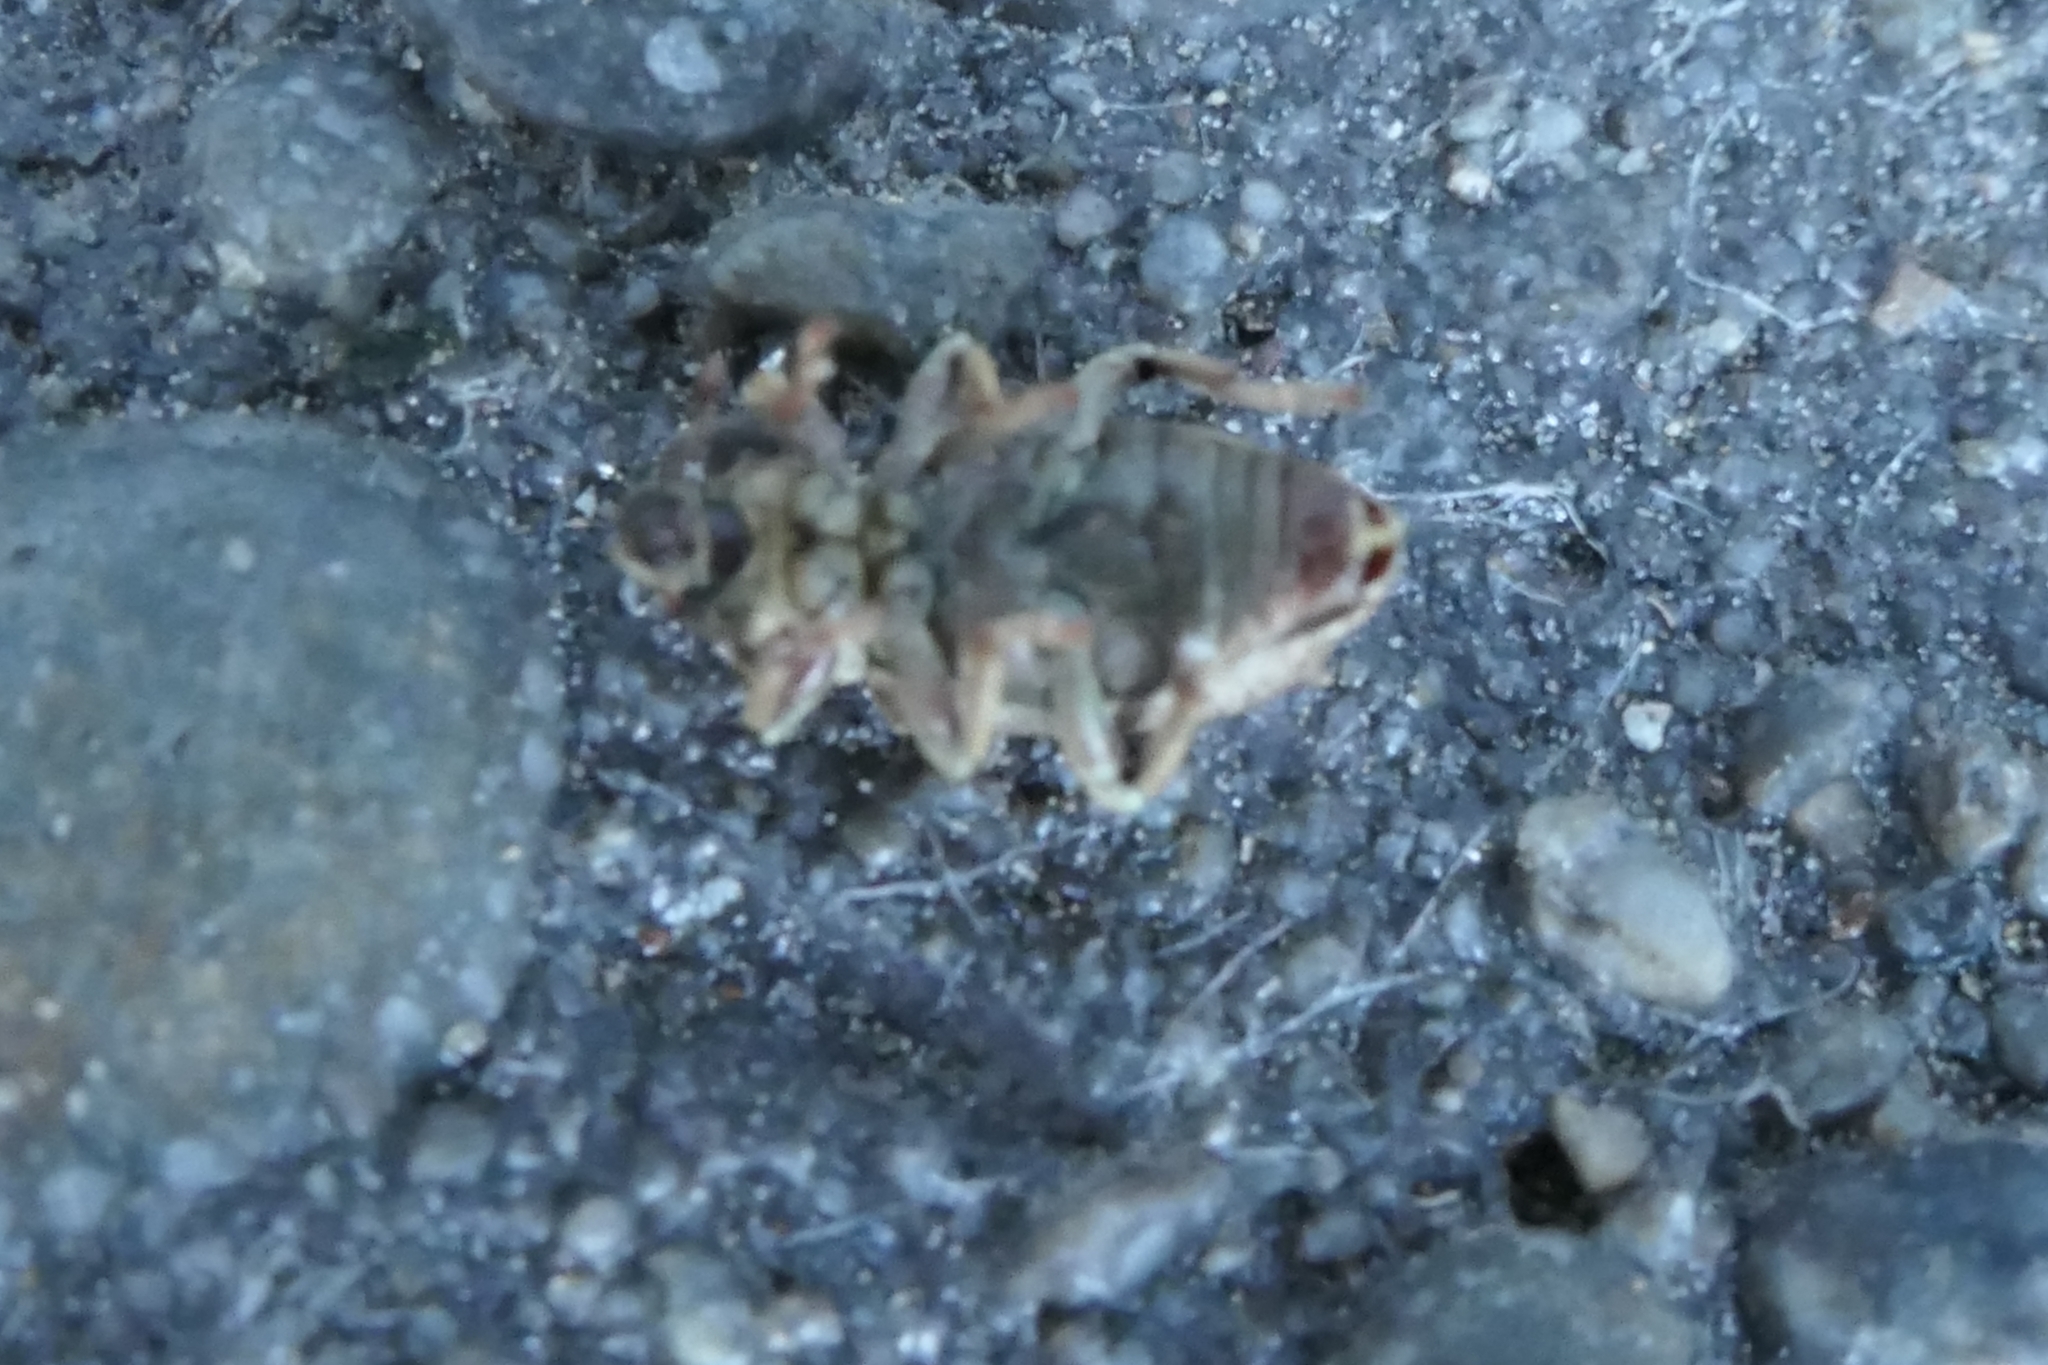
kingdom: Animalia
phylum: Arthropoda
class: Insecta
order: Coleoptera
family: Curculionidae
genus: Listroderes
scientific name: Listroderes delaiguei
